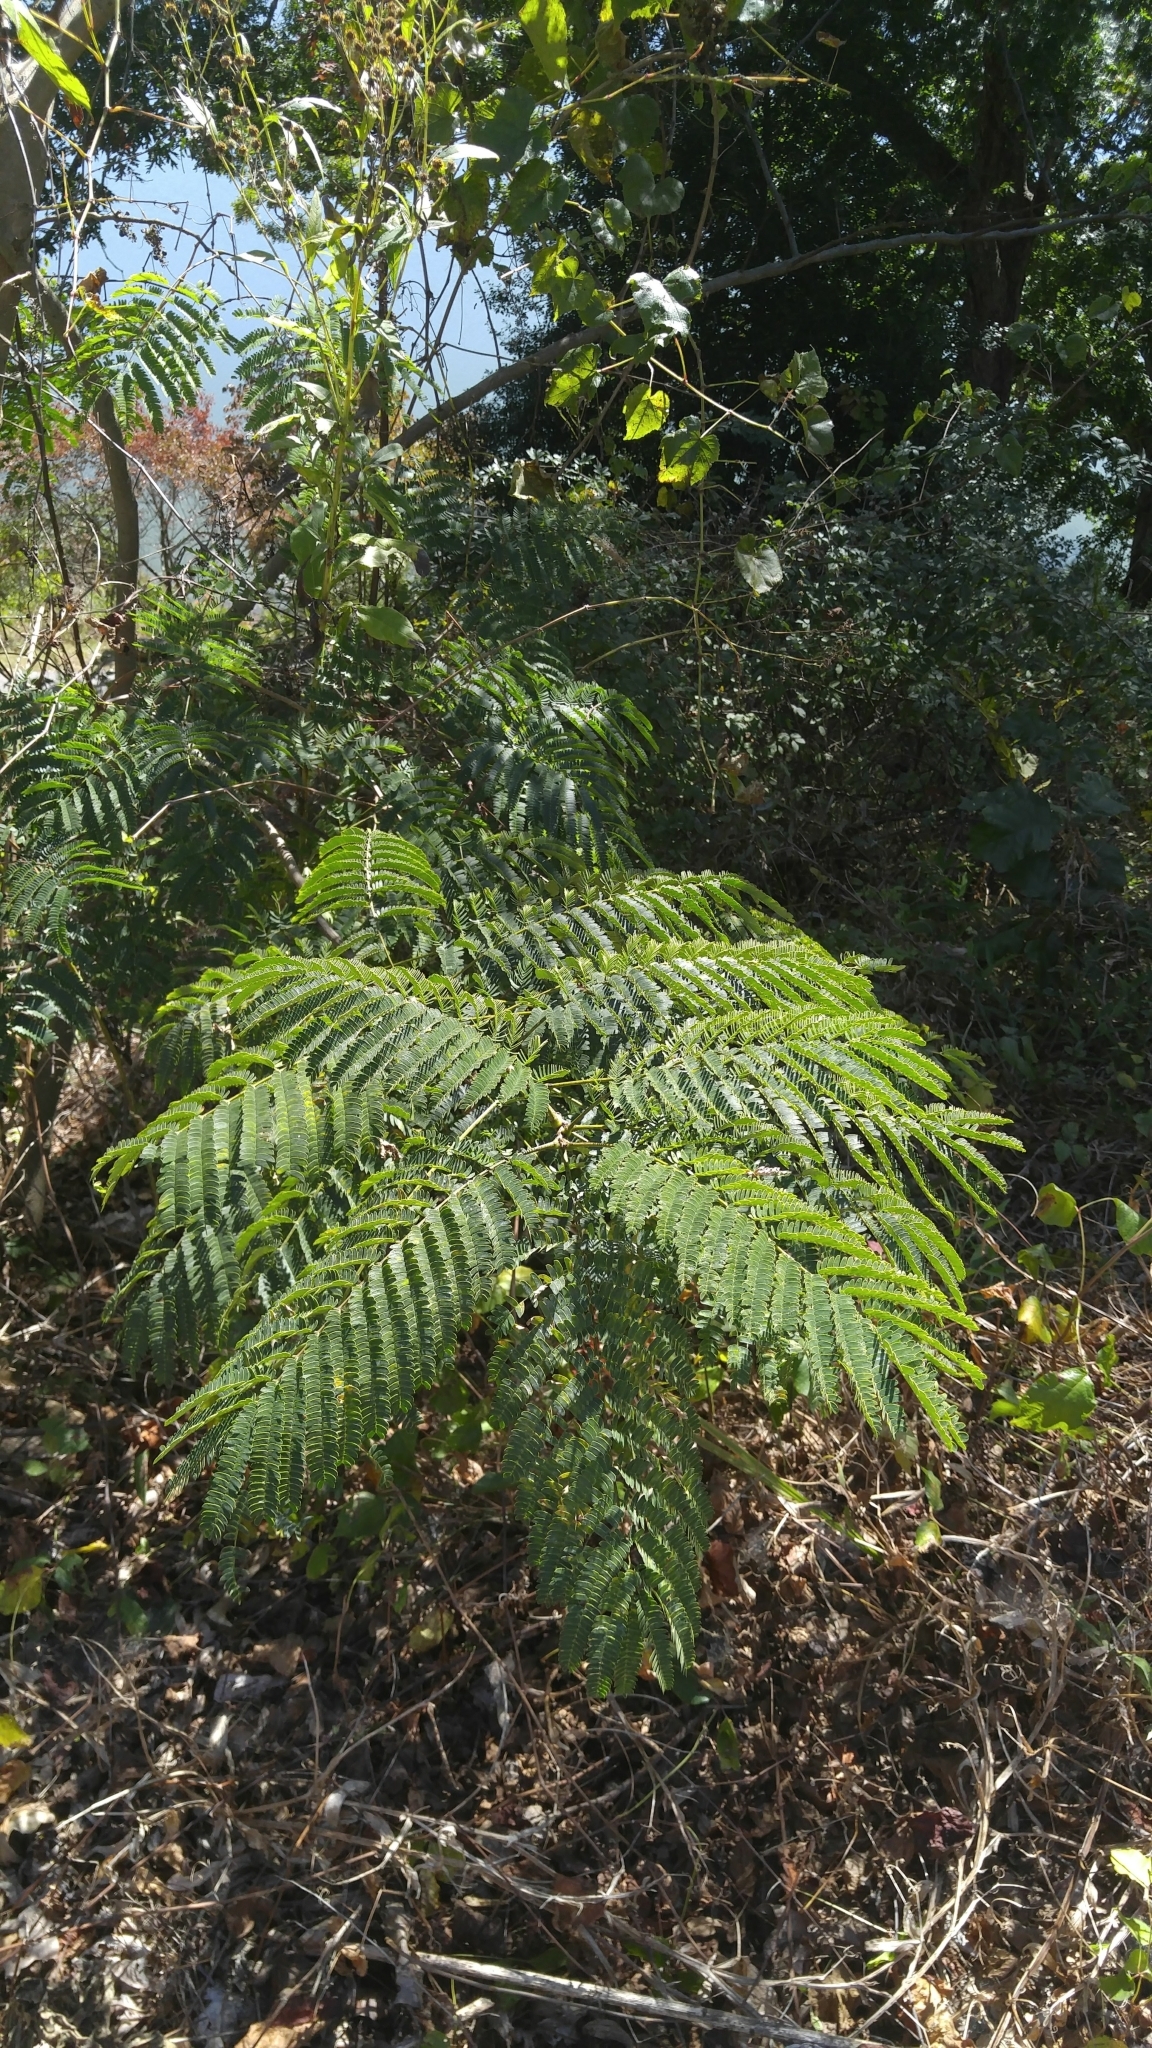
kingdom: Plantae
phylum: Tracheophyta
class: Magnoliopsida
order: Fabales
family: Fabaceae
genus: Albizia
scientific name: Albizia julibrissin
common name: Silktree
